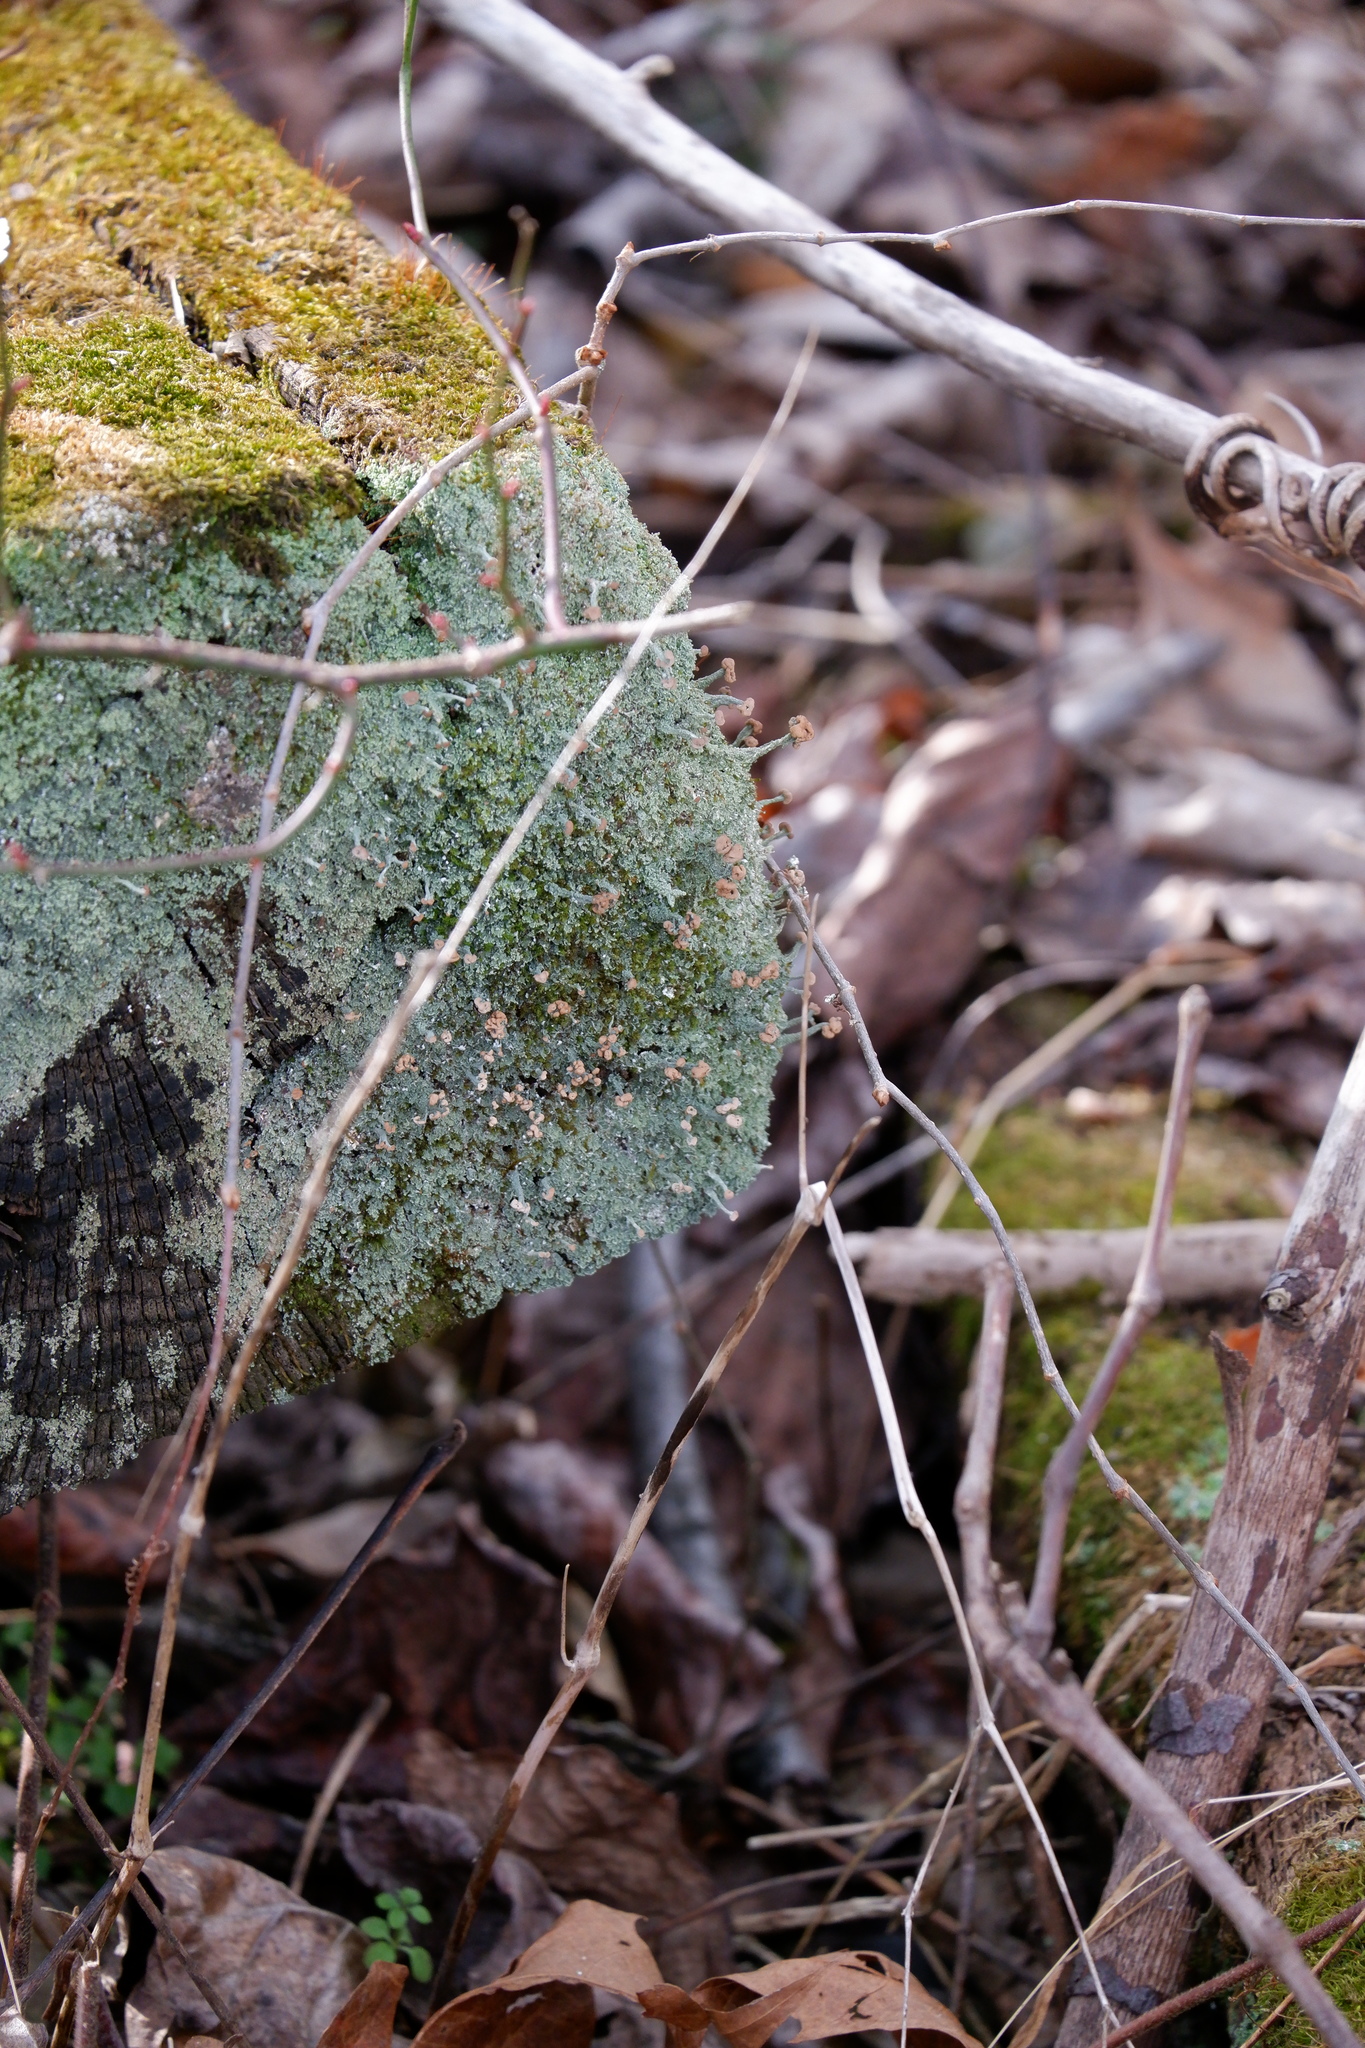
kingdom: Fungi
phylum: Ascomycota
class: Lecanoromycetes
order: Lecanorales
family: Cladoniaceae
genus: Cladonia
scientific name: Cladonia peziziformis
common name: Cup lichen
